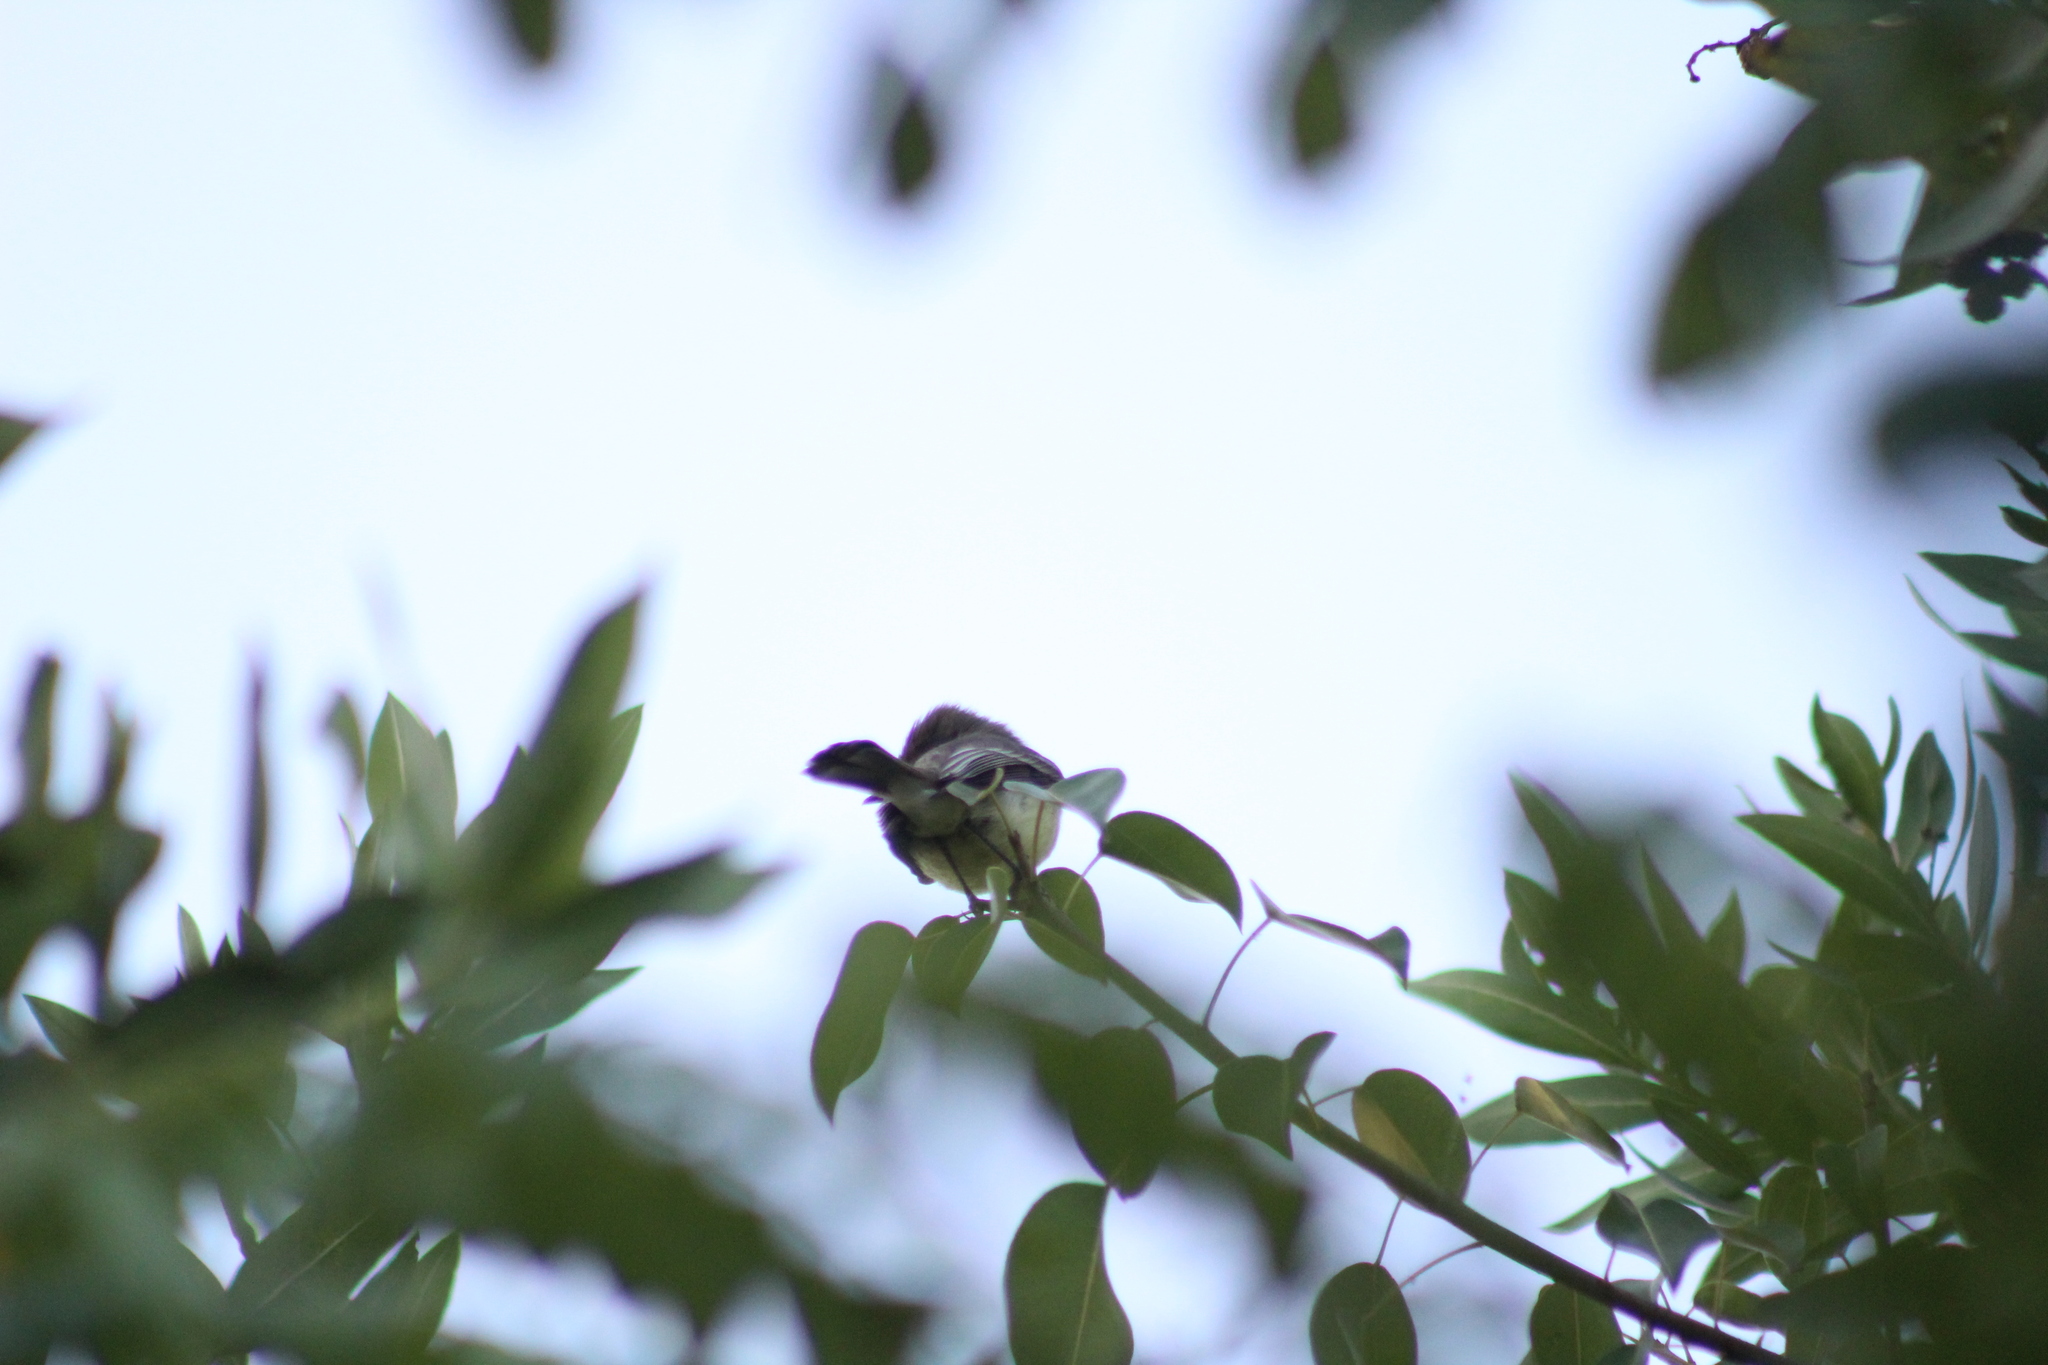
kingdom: Animalia
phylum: Chordata
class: Aves
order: Passeriformes
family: Tyrannidae
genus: Myiarchus
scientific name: Myiarchus magnirostris
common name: Galapagos flycatcher
